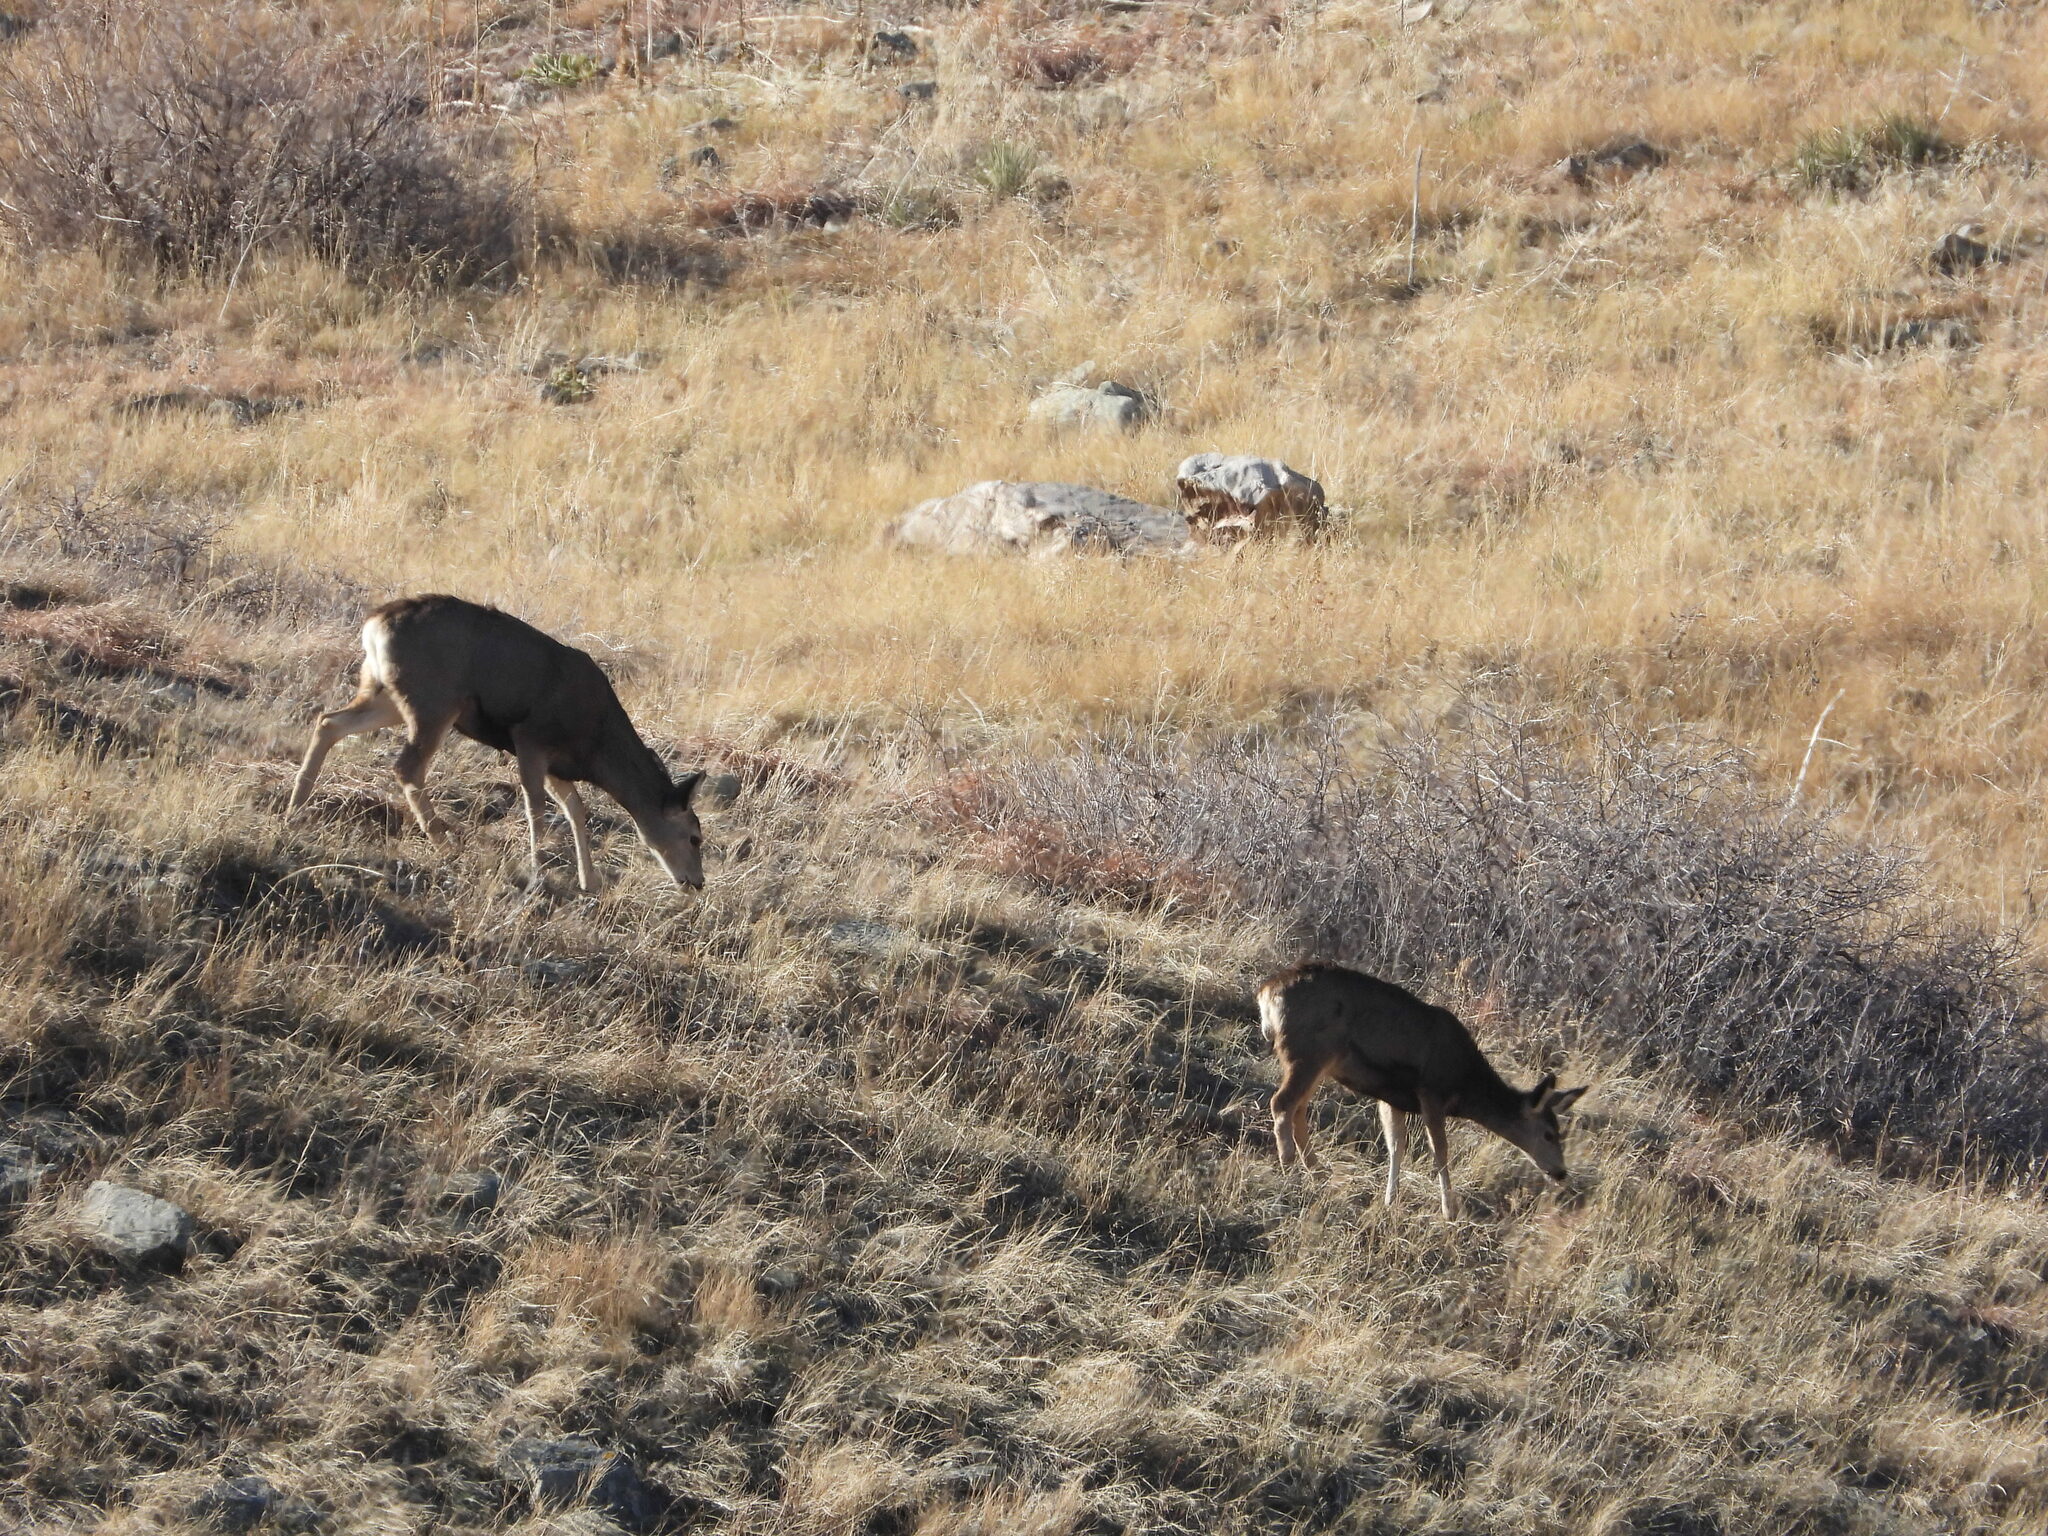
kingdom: Animalia
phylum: Chordata
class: Mammalia
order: Artiodactyla
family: Cervidae
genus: Odocoileus
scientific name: Odocoileus hemionus
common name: Mule deer
